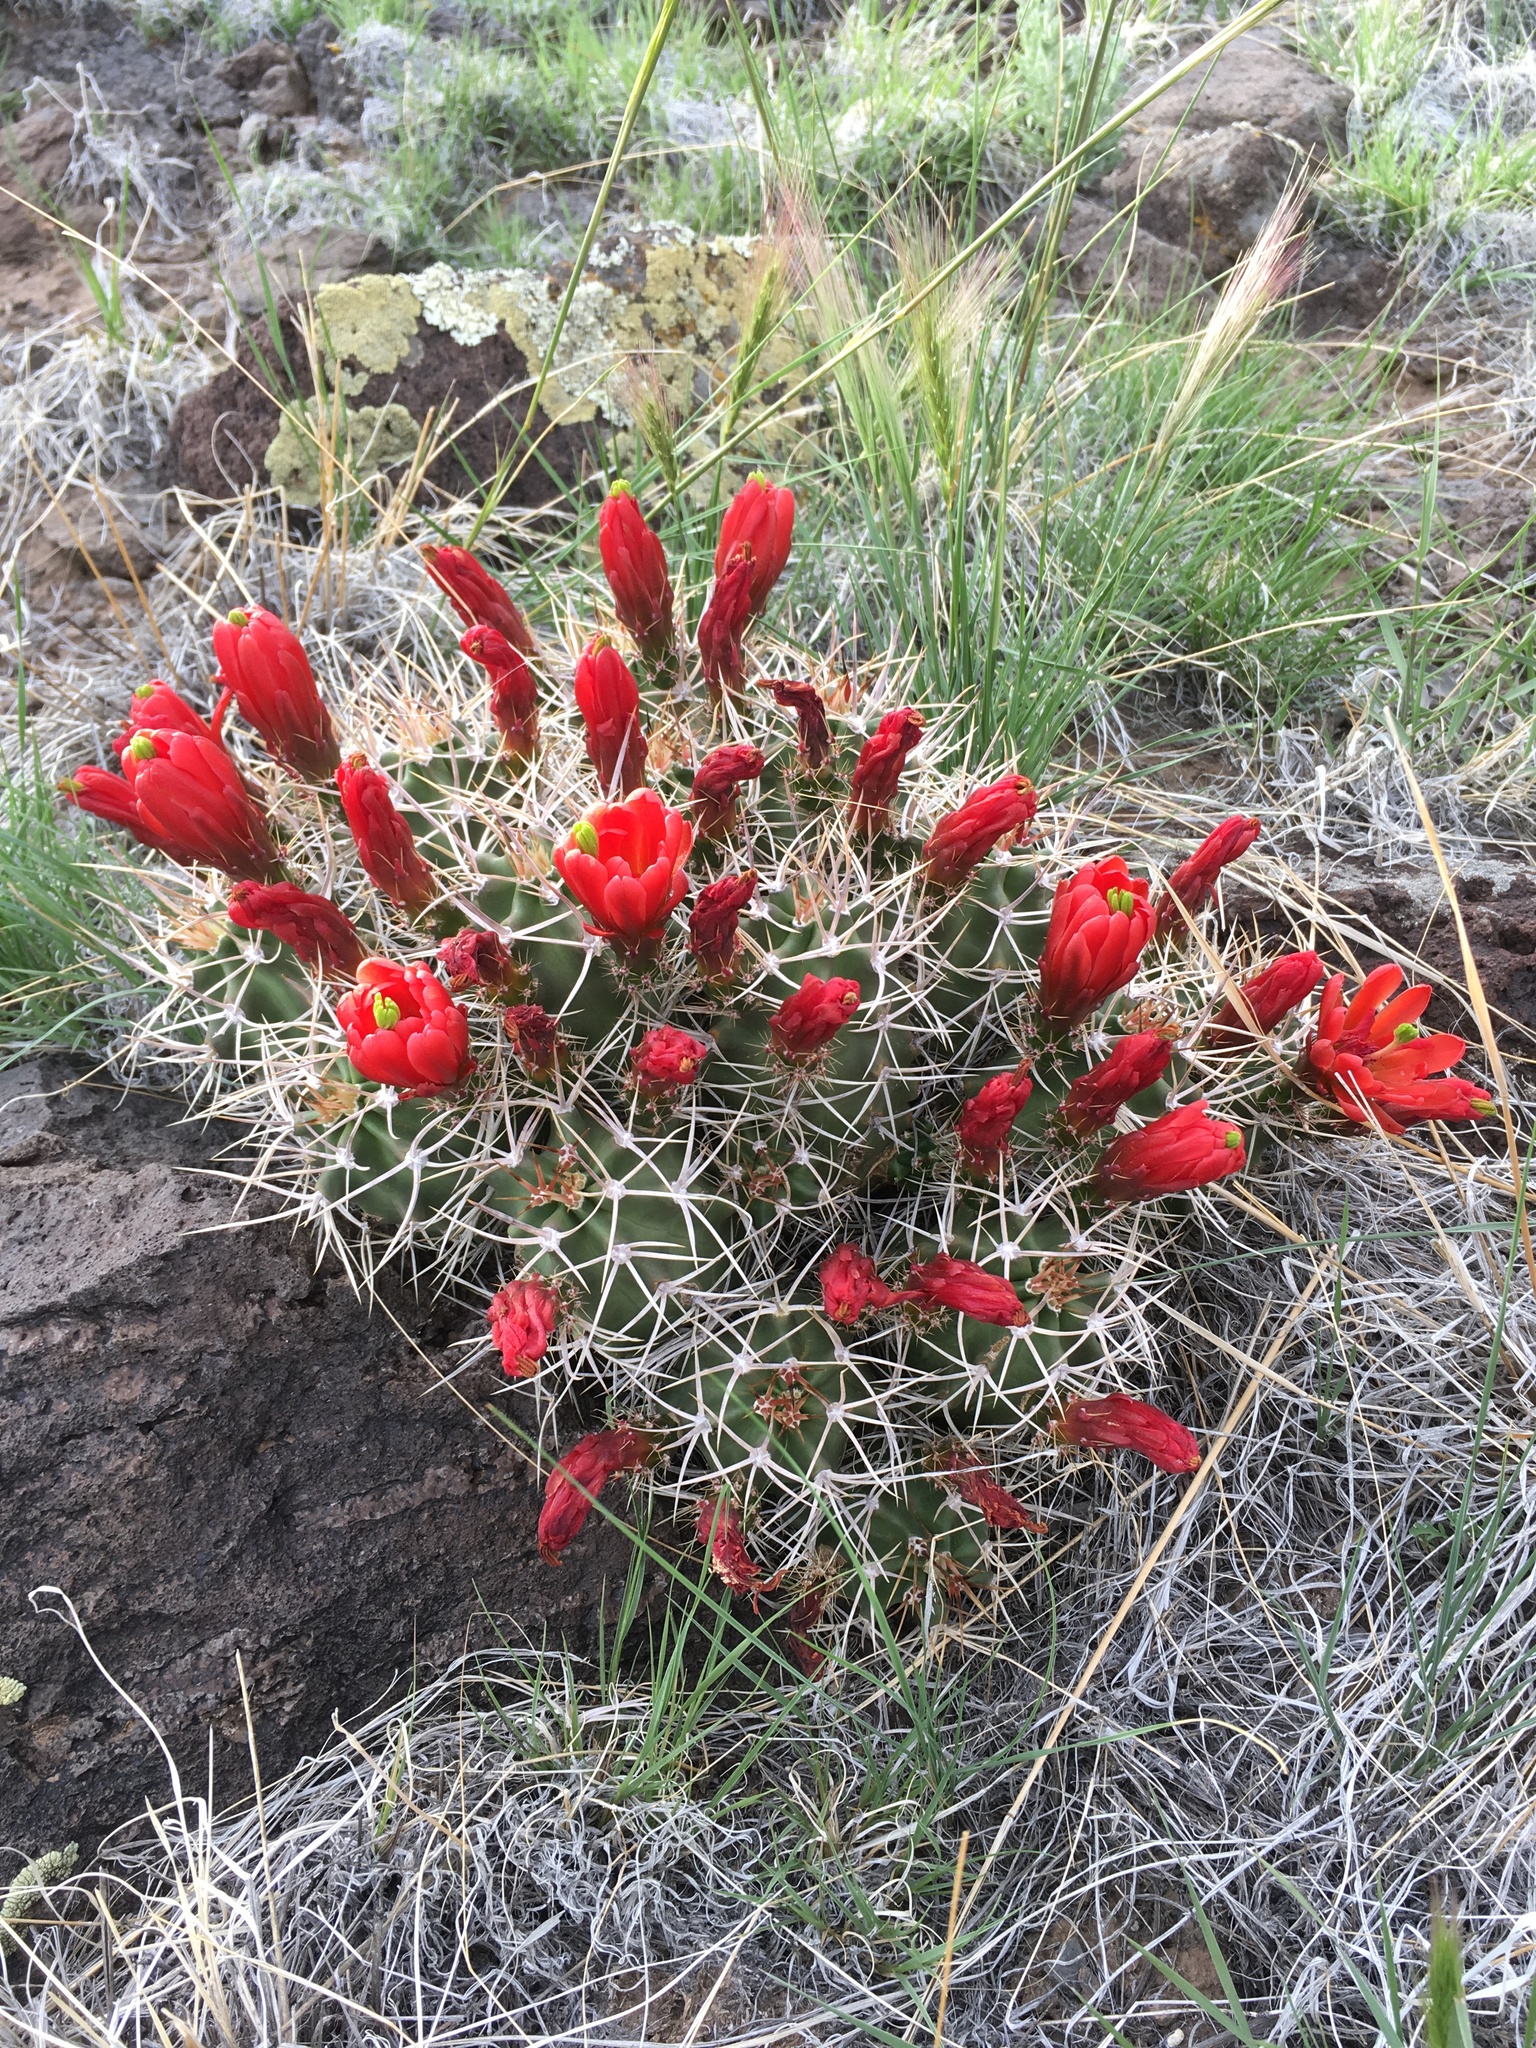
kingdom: Plantae
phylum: Tracheophyta
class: Magnoliopsida
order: Caryophyllales
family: Cactaceae
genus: Echinocereus
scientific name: Echinocereus triglochidiatus
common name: Claretcup hedgehog
